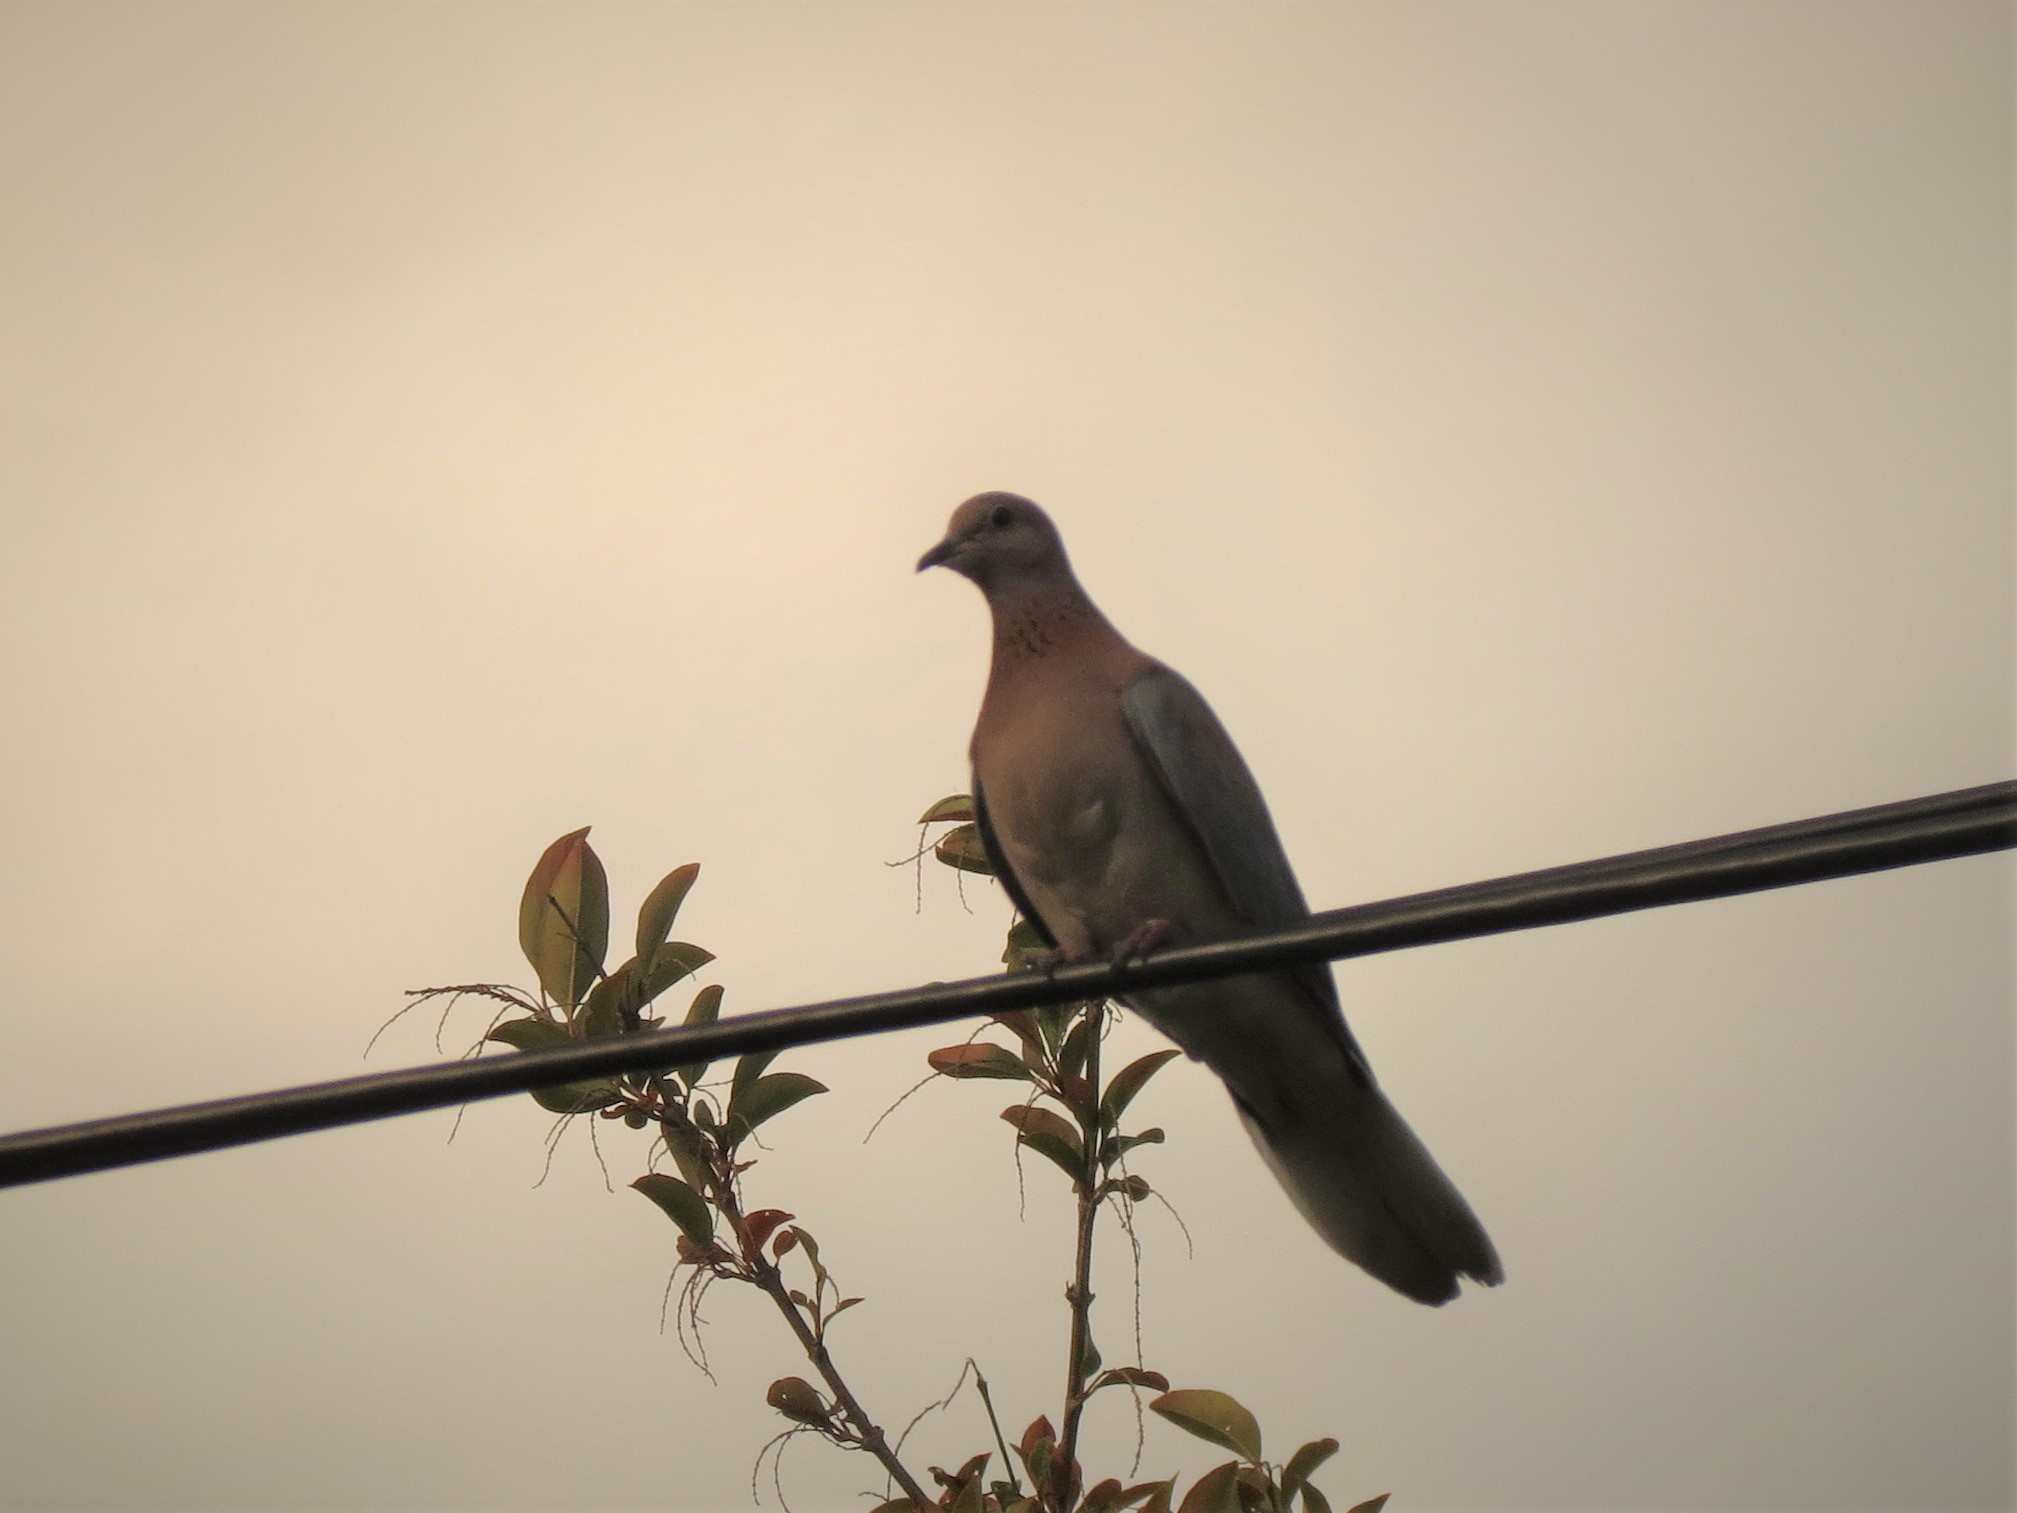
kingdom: Animalia
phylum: Chordata
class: Aves
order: Columbiformes
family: Columbidae
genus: Spilopelia
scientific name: Spilopelia senegalensis
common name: Laughing dove
